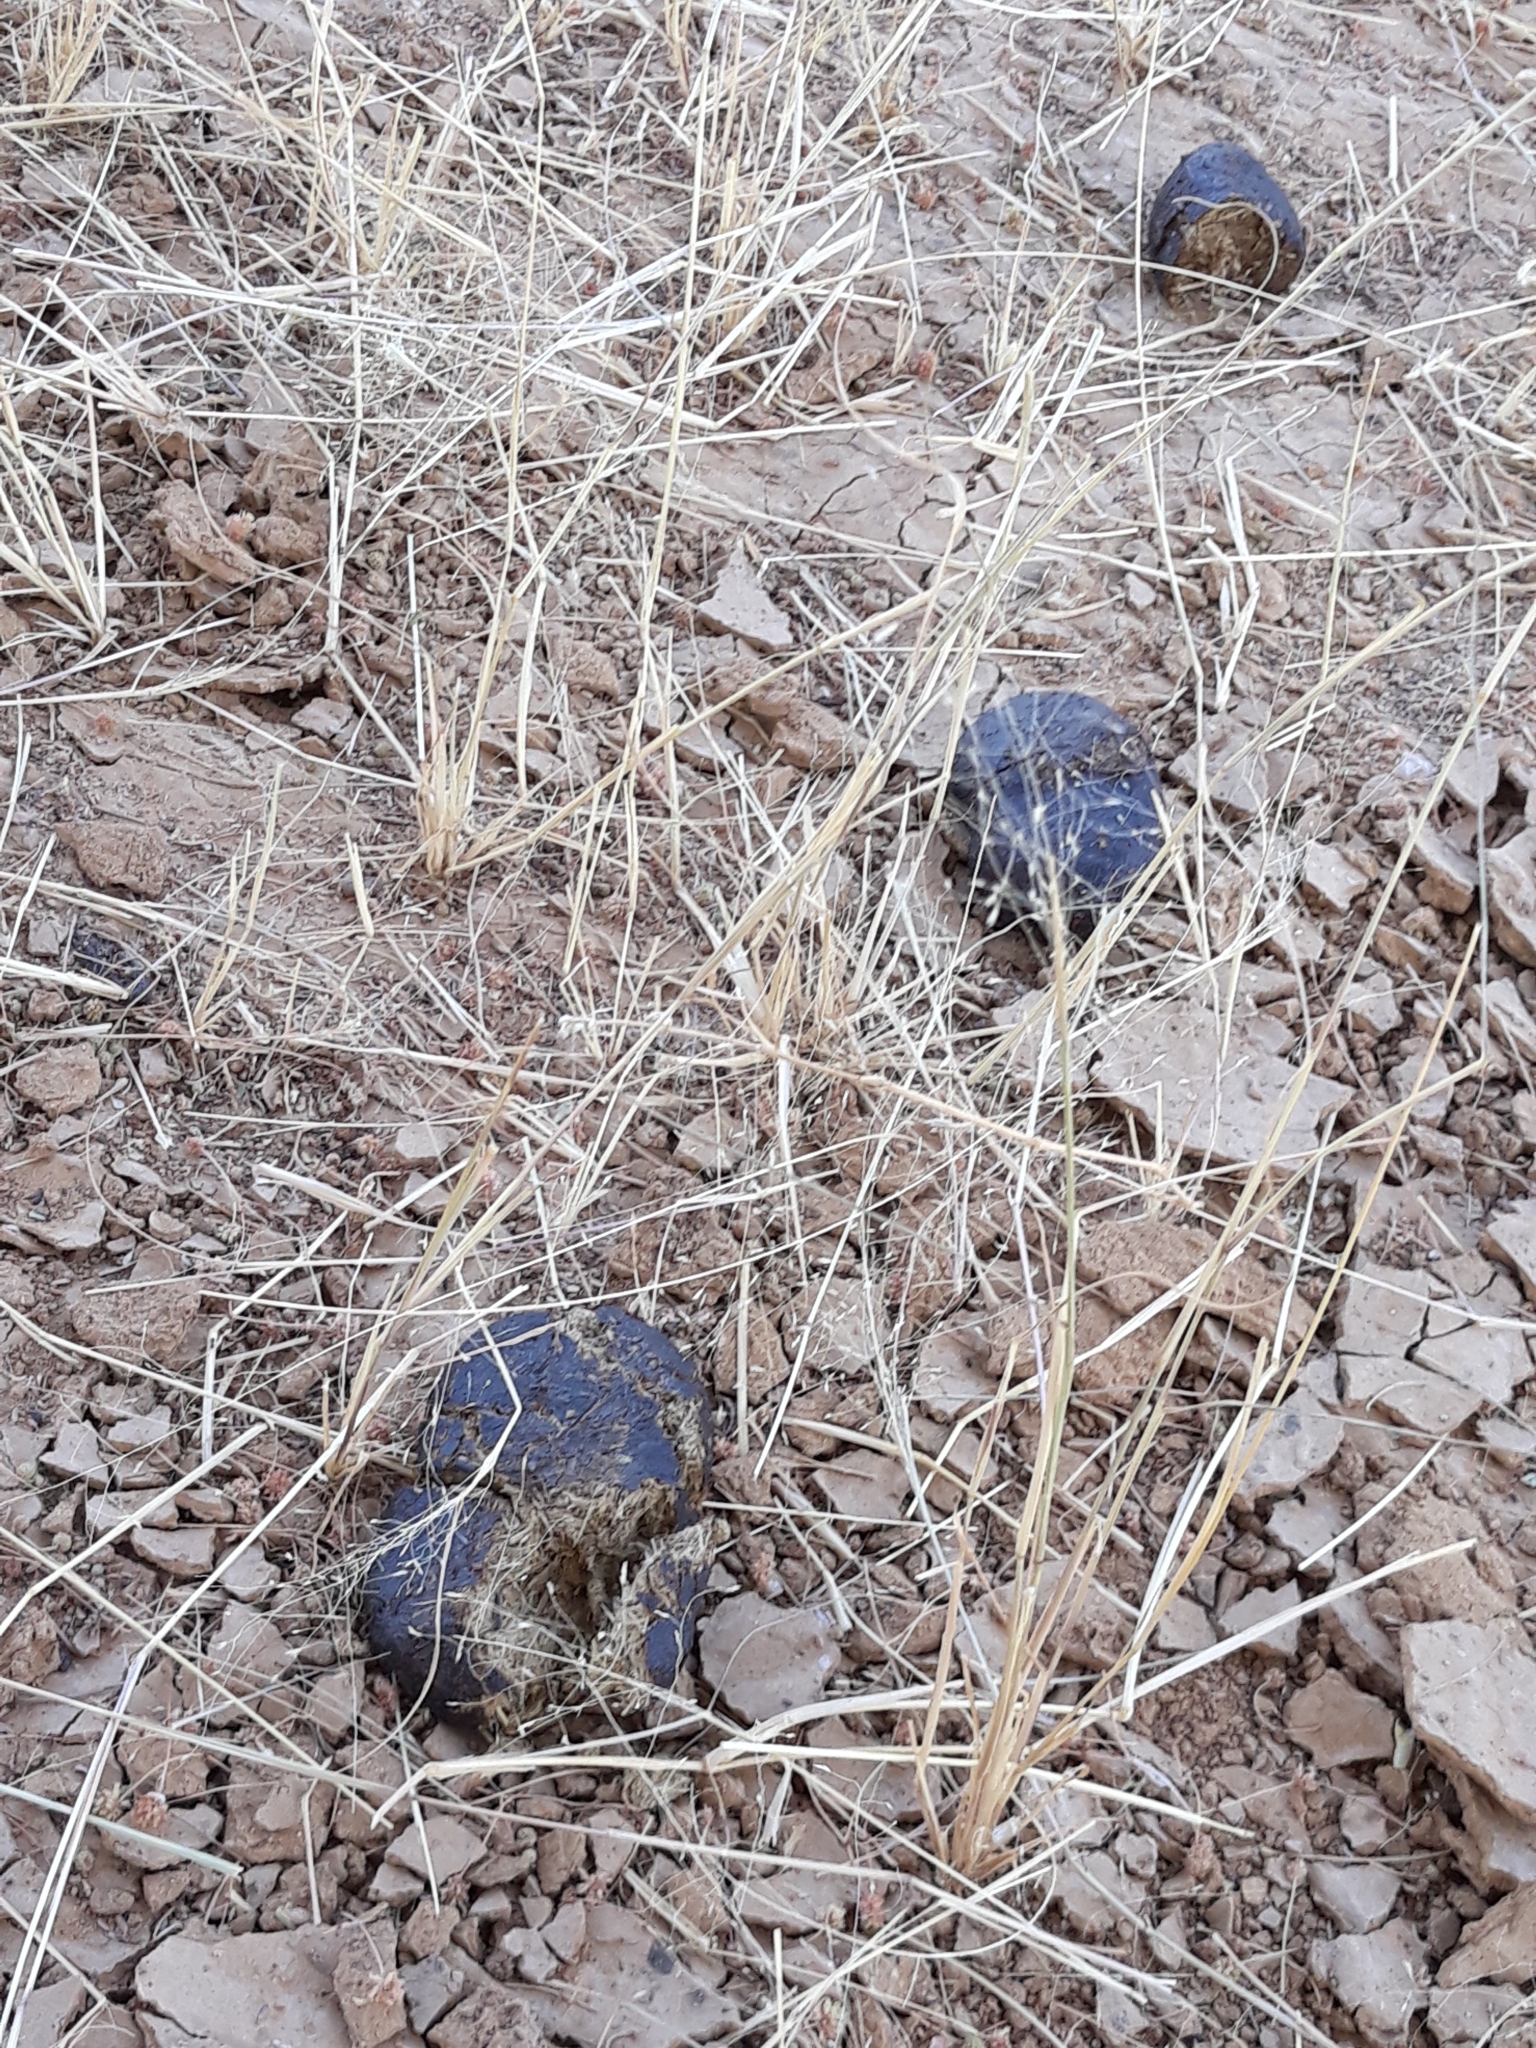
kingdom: Animalia
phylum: Chordata
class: Mammalia
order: Perissodactyla
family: Equidae
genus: Equus
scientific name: Equus asinus
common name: Ass
